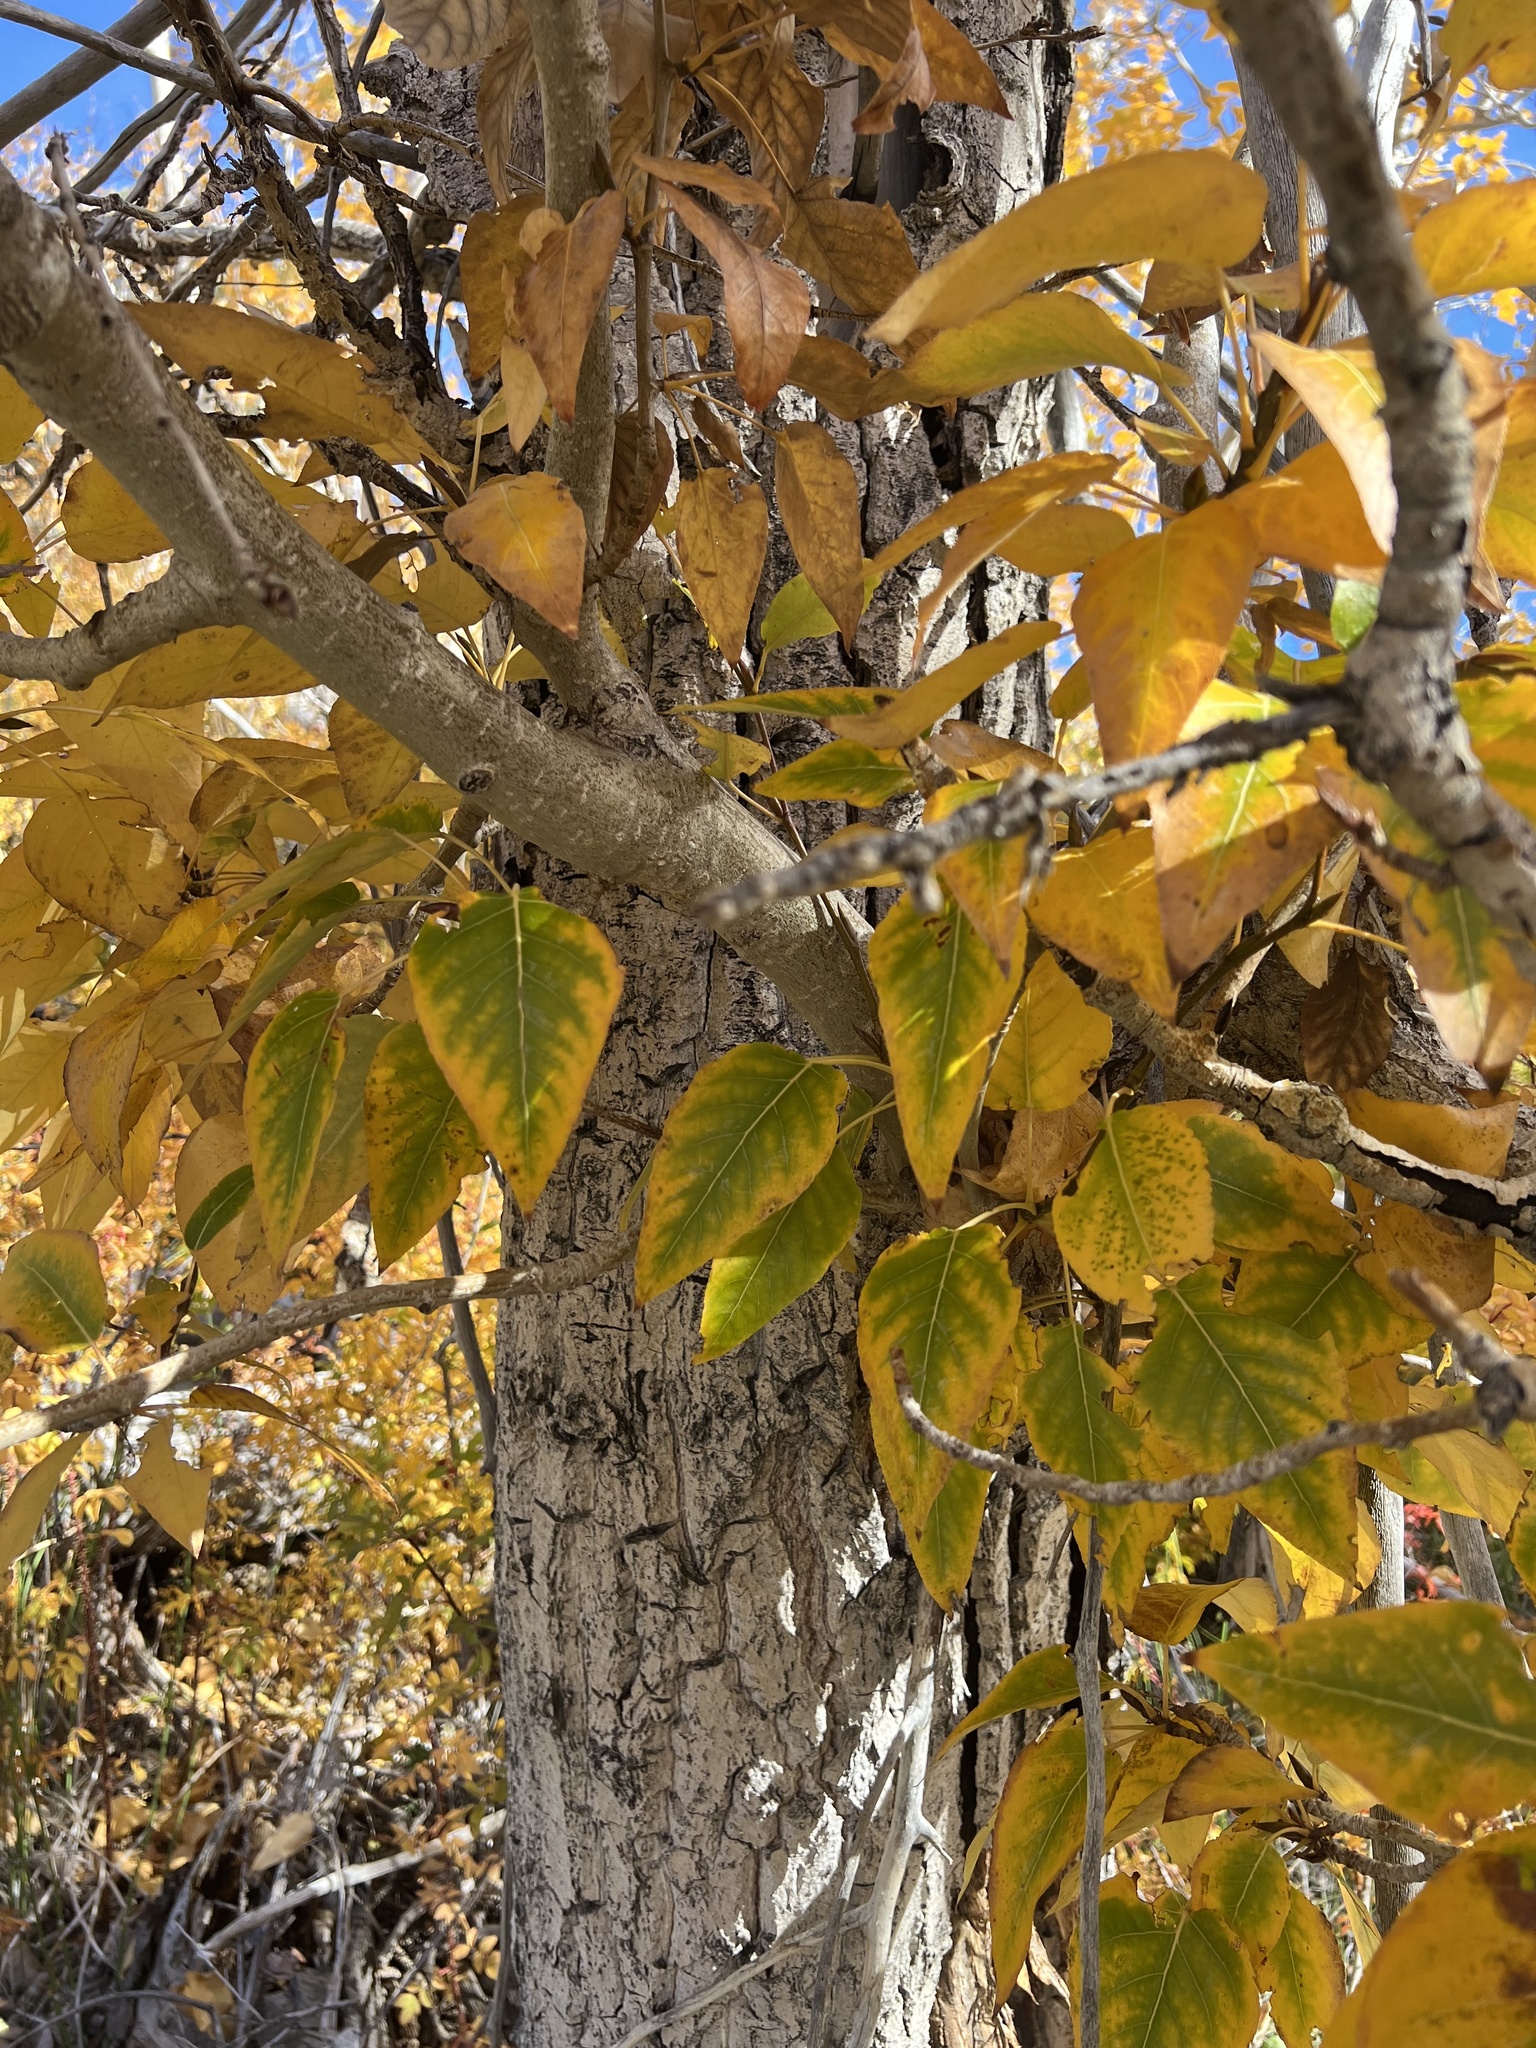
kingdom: Plantae
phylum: Tracheophyta
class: Magnoliopsida
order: Malpighiales
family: Salicaceae
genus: Populus
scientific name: Populus trichocarpa
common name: Black cottonwood
